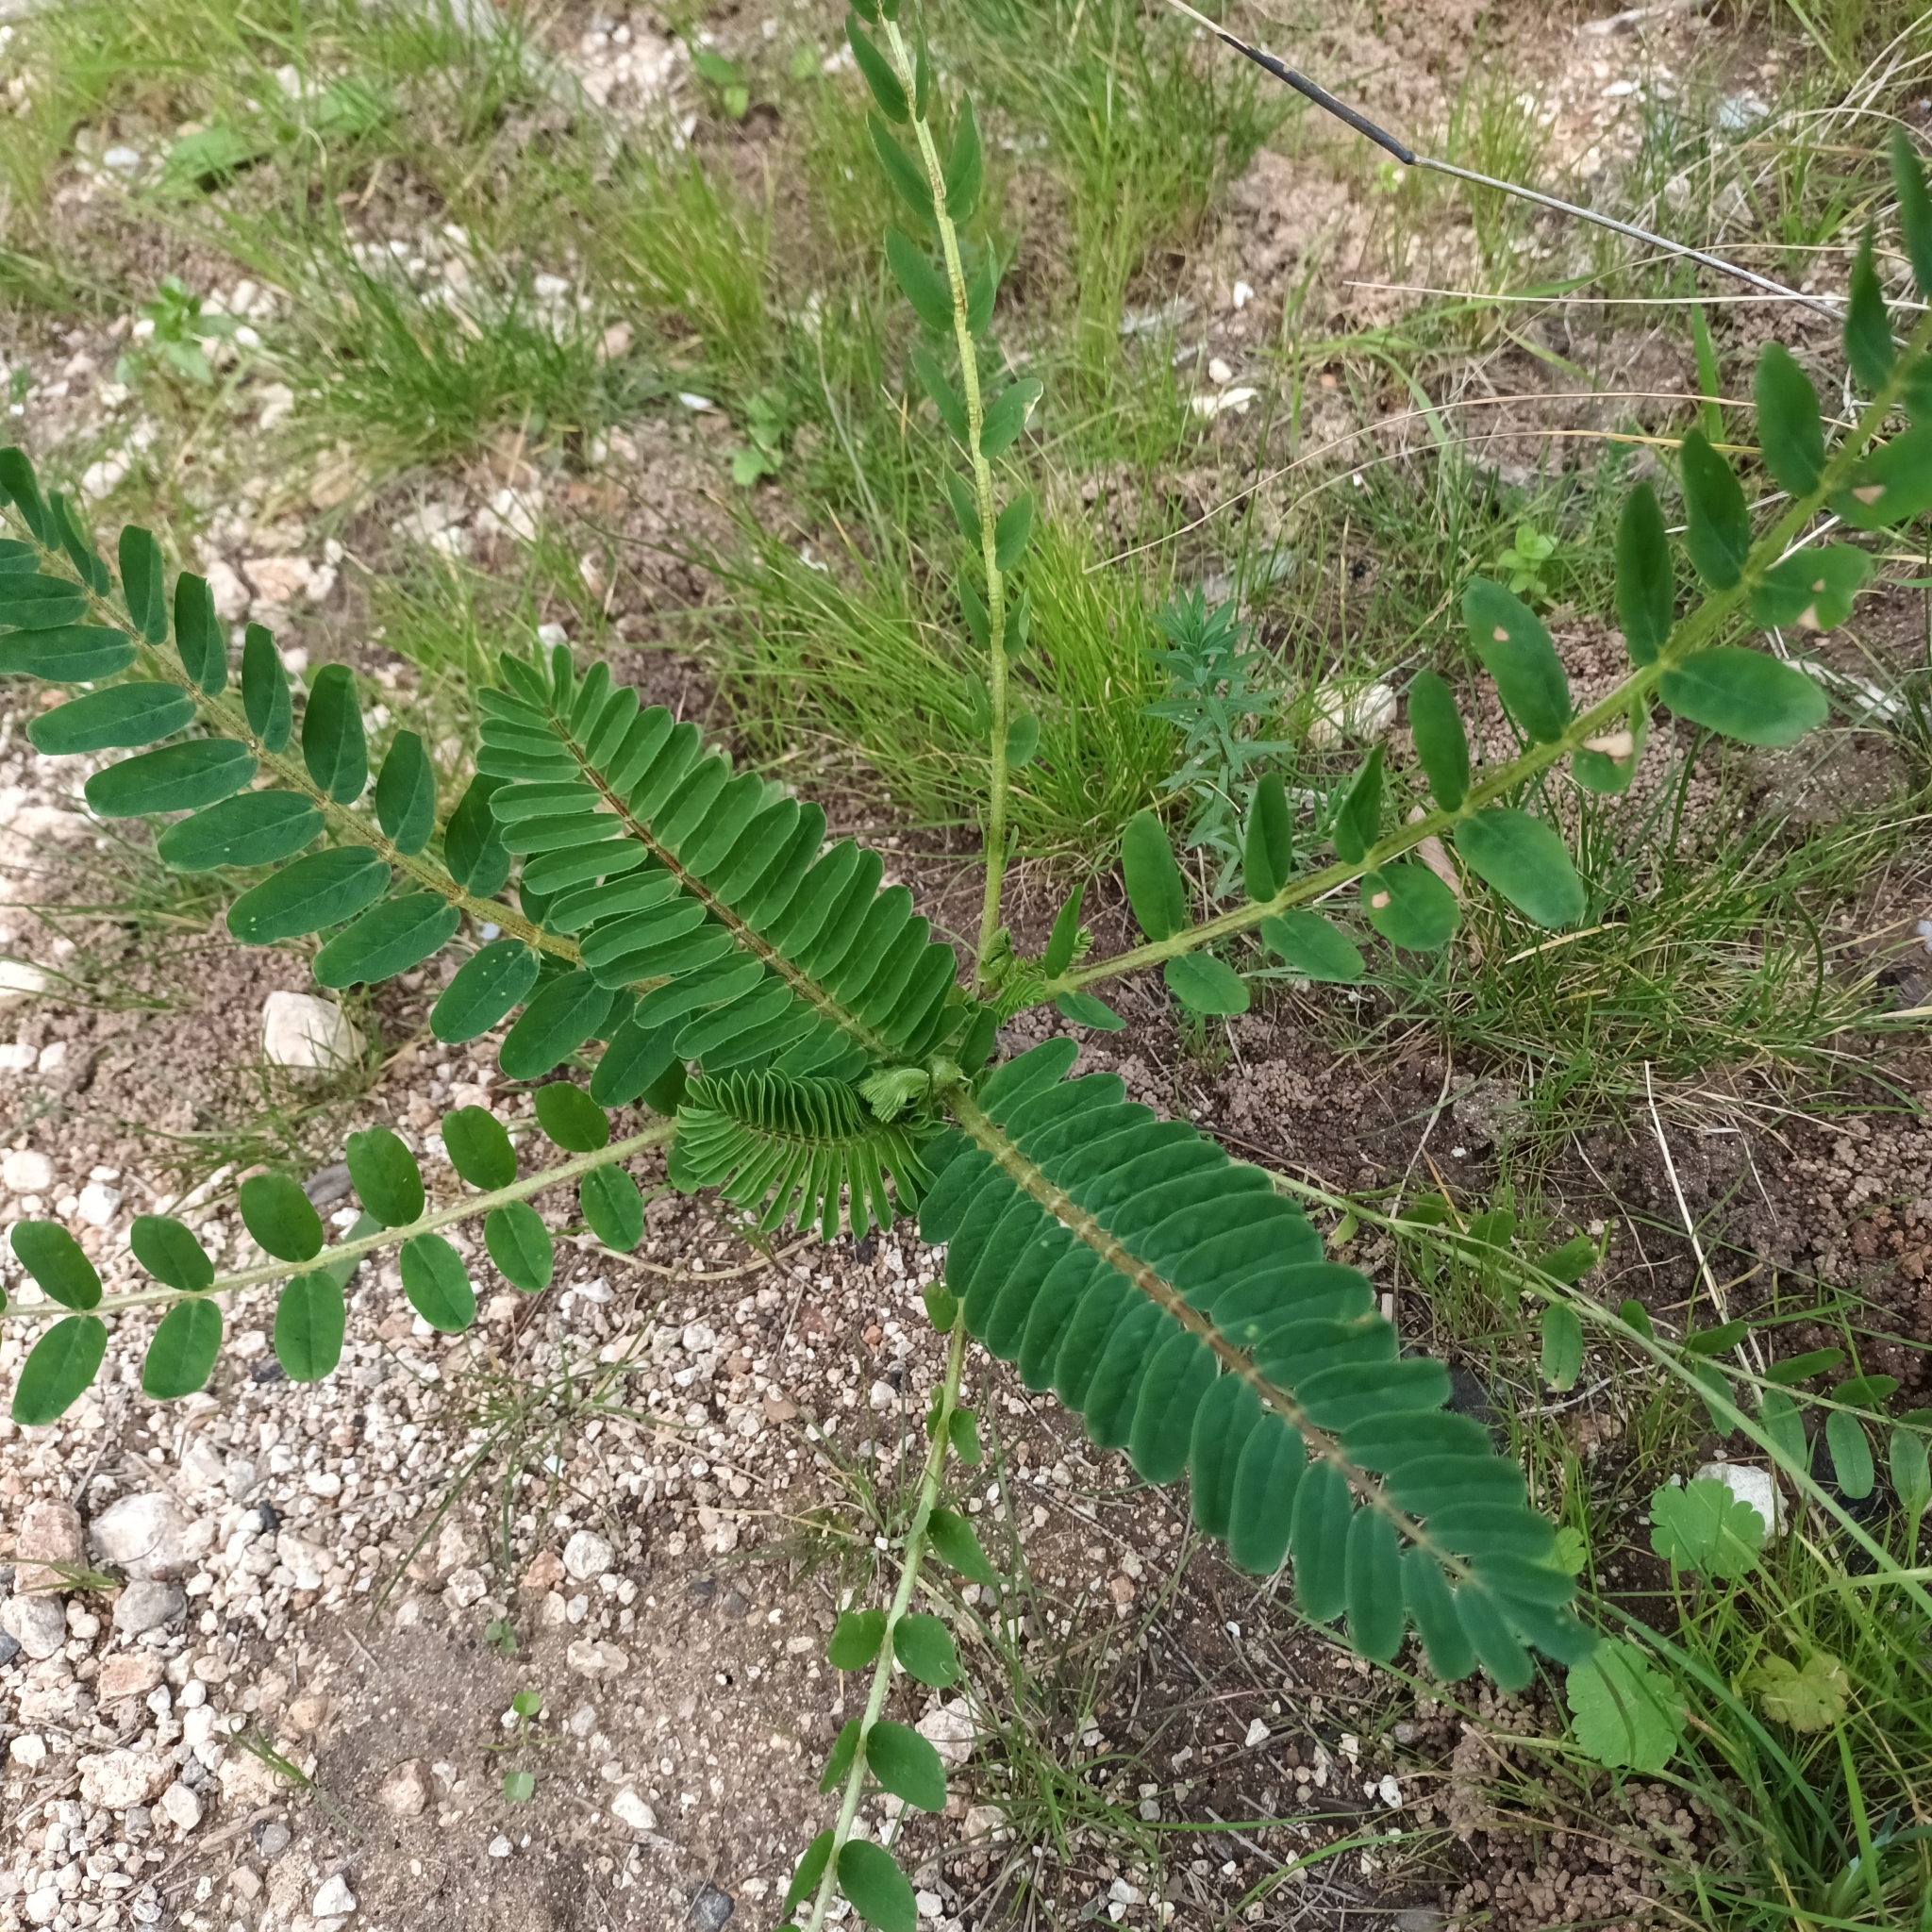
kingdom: Plantae
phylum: Tracheophyta
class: Magnoliopsida
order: Fabales
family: Fabaceae
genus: Astragalus
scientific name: Astragalus boeticus
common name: Milk-vetch
